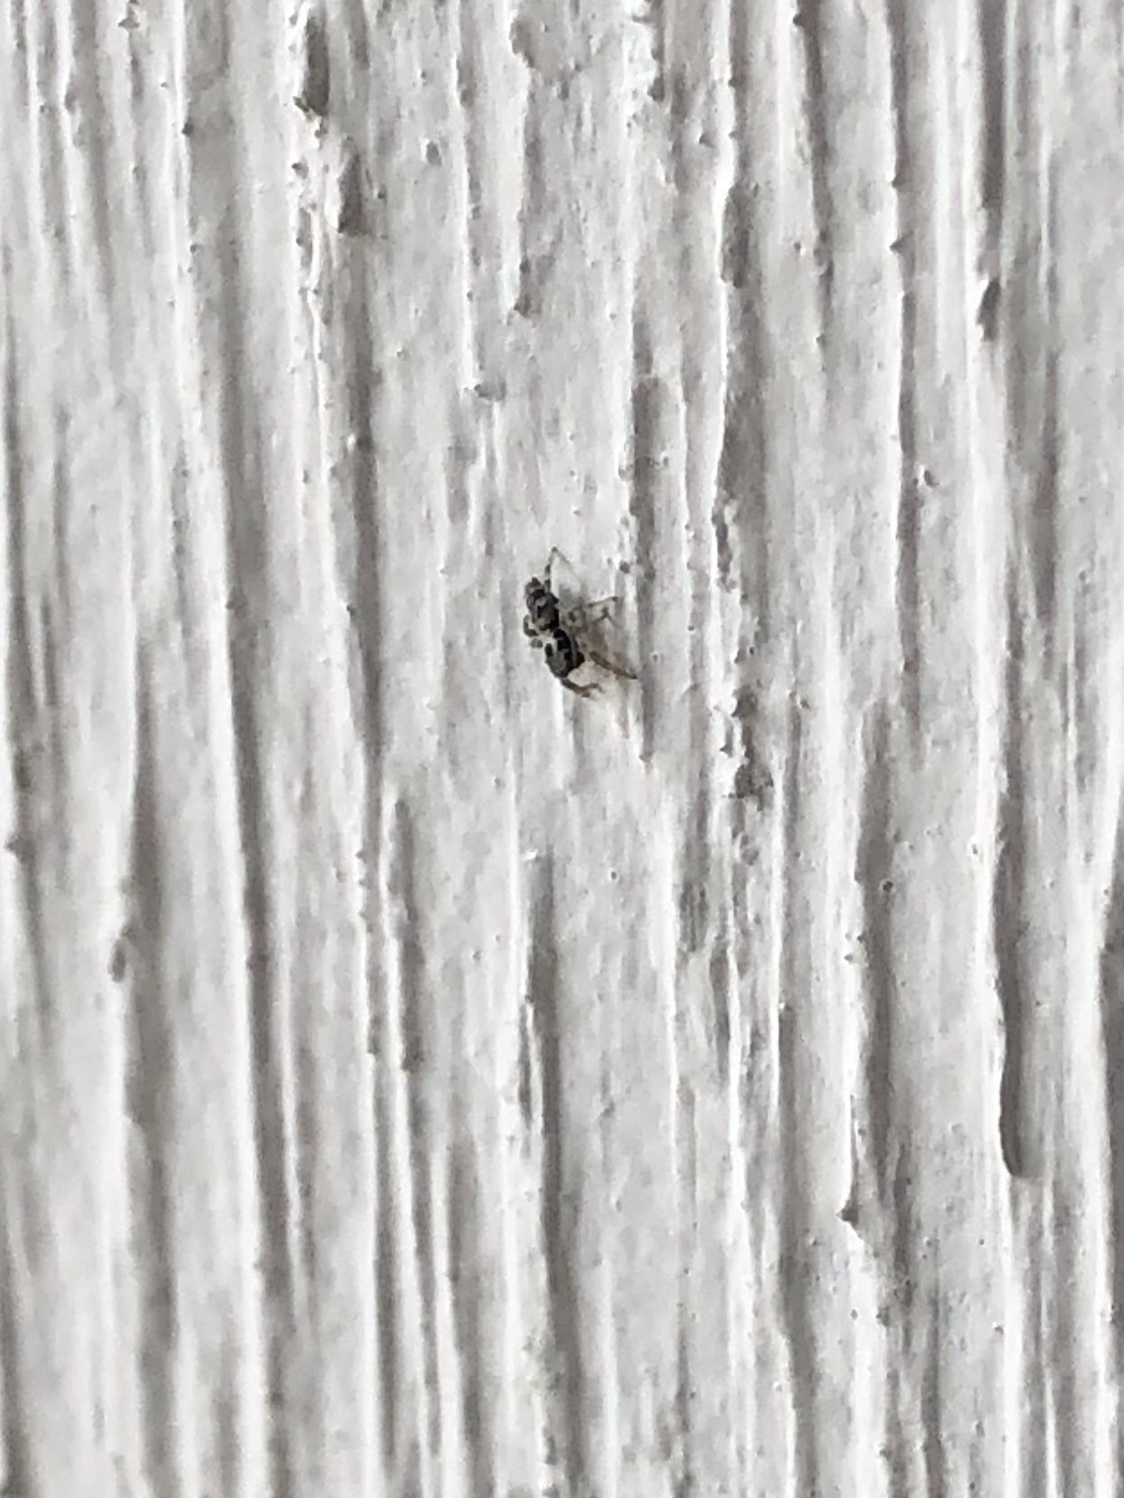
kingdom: Animalia
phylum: Arthropoda
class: Arachnida
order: Araneae
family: Salticidae
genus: Salticus
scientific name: Salticus scenicus
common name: Zebra jumper
